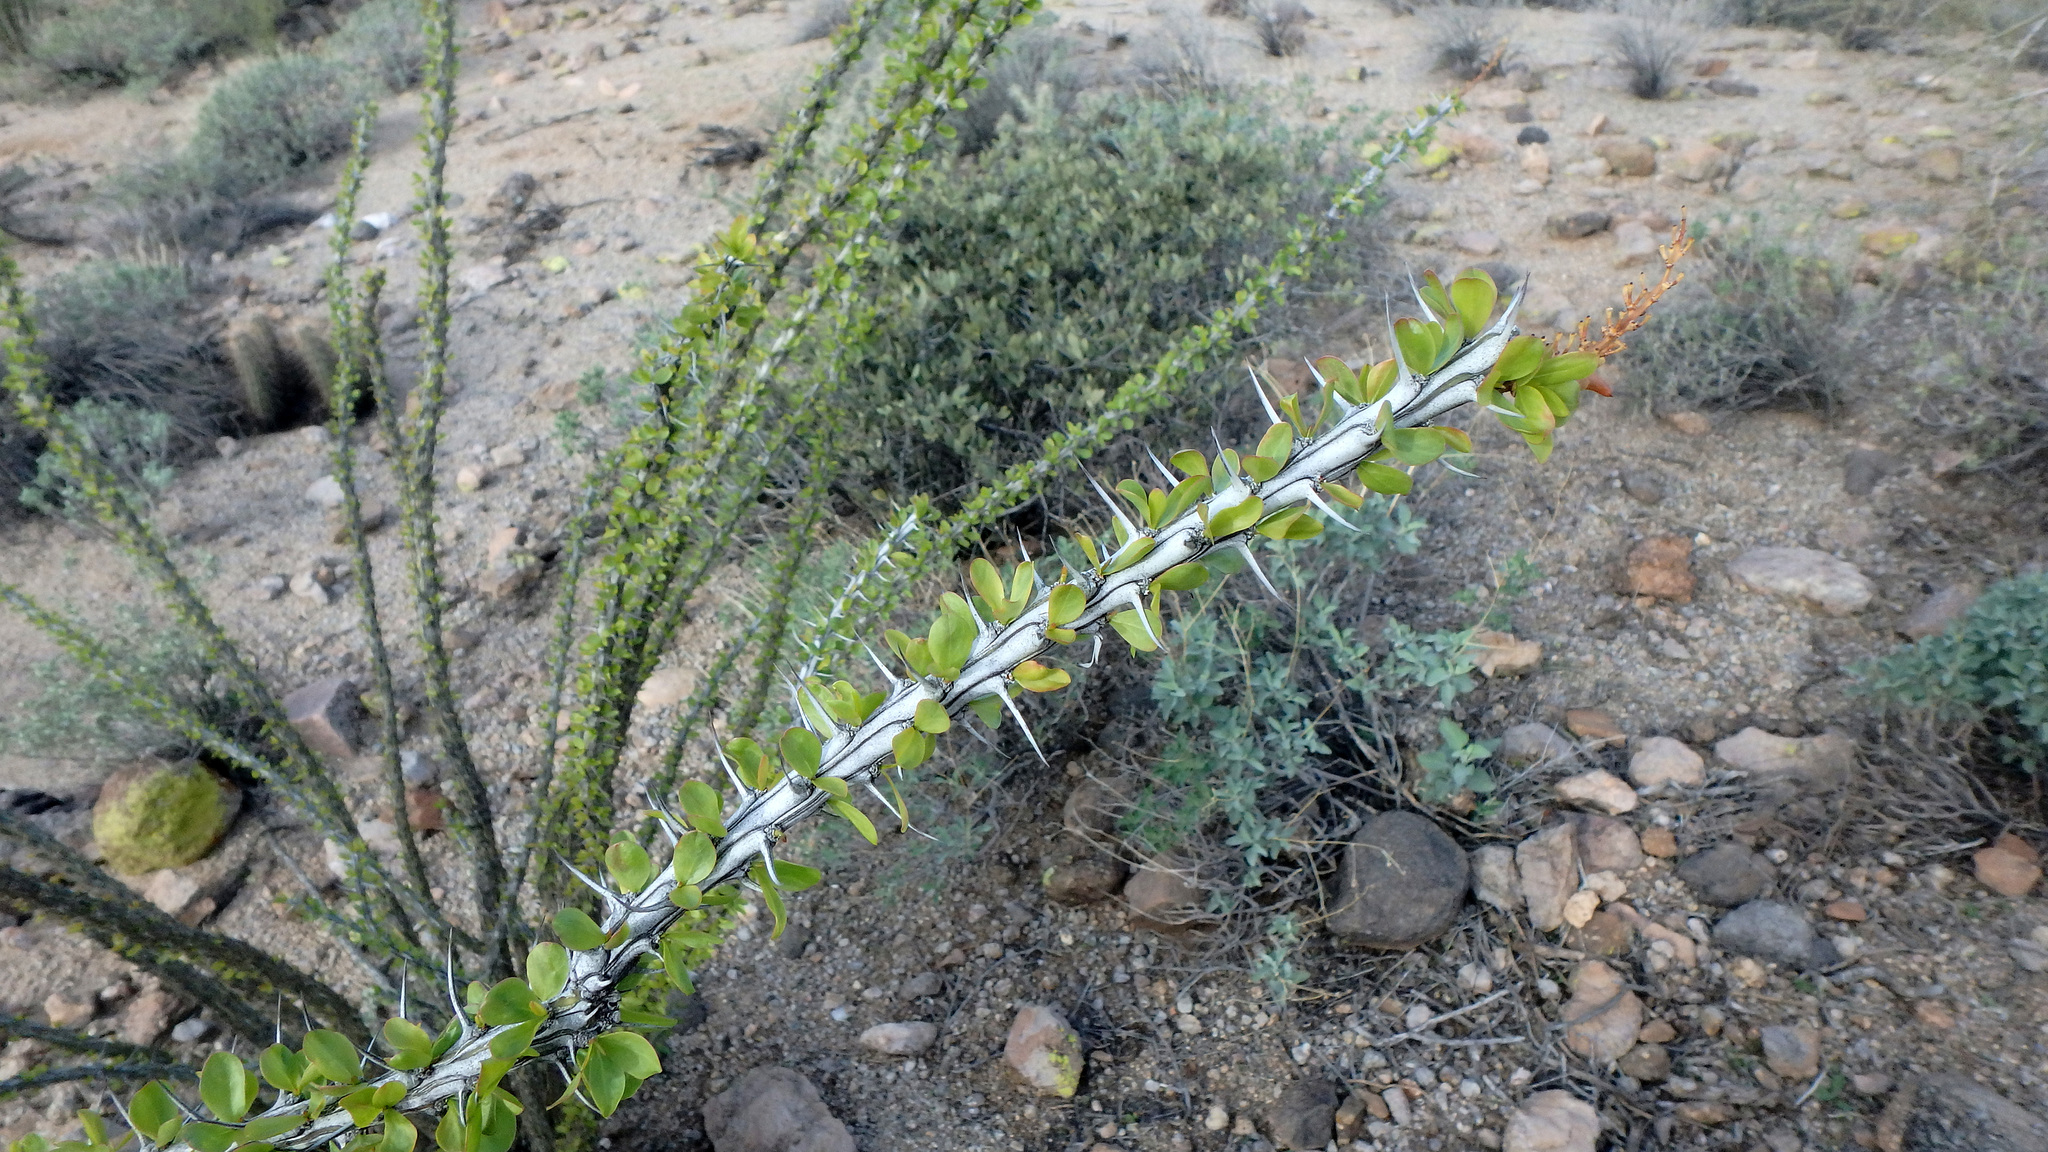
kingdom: Plantae
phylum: Tracheophyta
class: Magnoliopsida
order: Ericales
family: Fouquieriaceae
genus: Fouquieria
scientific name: Fouquieria splendens
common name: Vine-cactus
